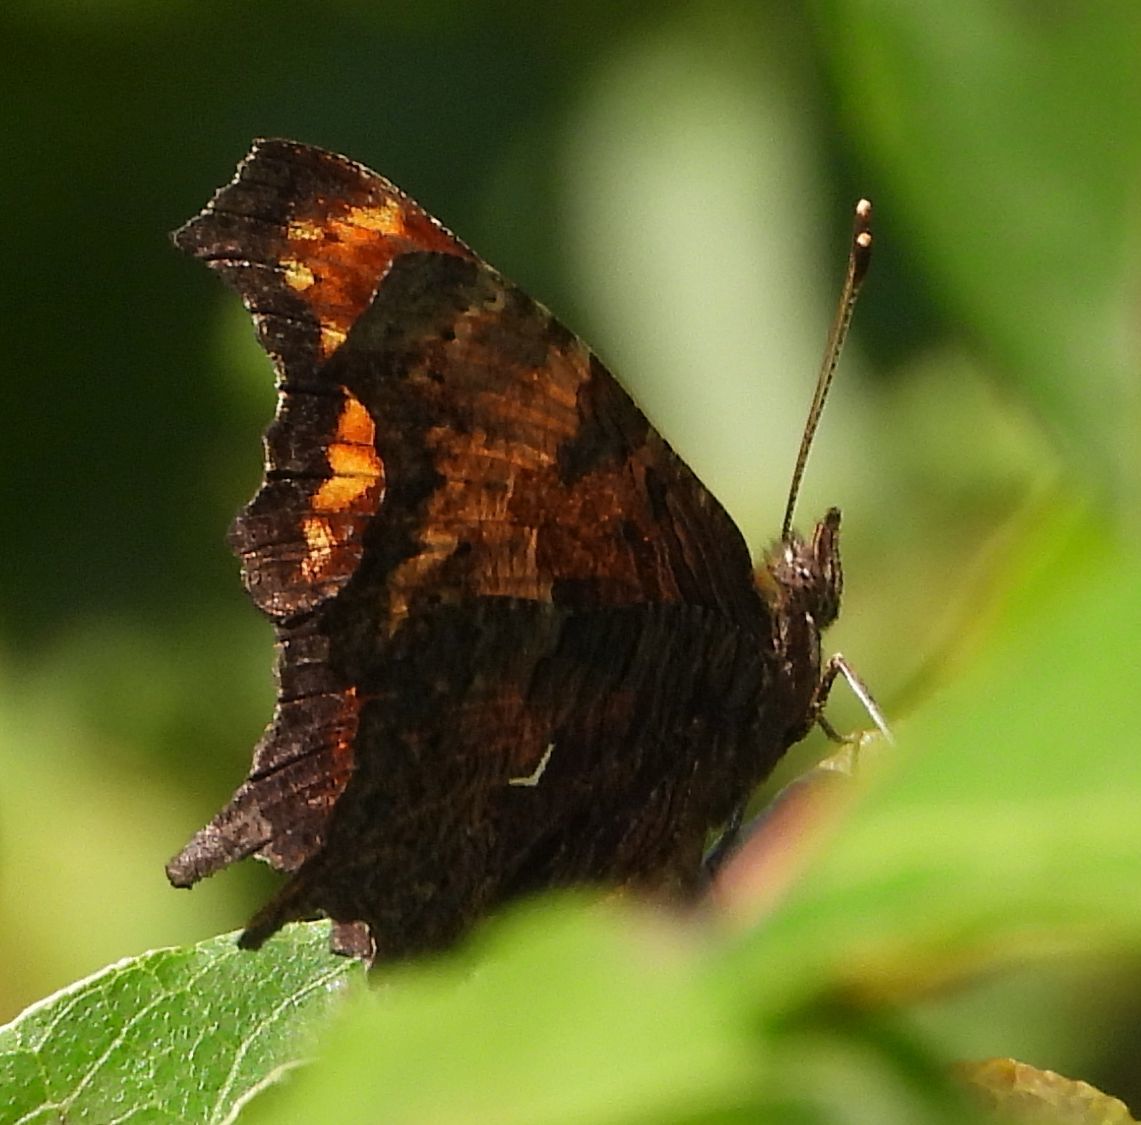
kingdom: Animalia
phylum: Arthropoda
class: Insecta
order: Lepidoptera
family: Nymphalidae
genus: Polygonia
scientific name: Polygonia progne
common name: Gray comma
